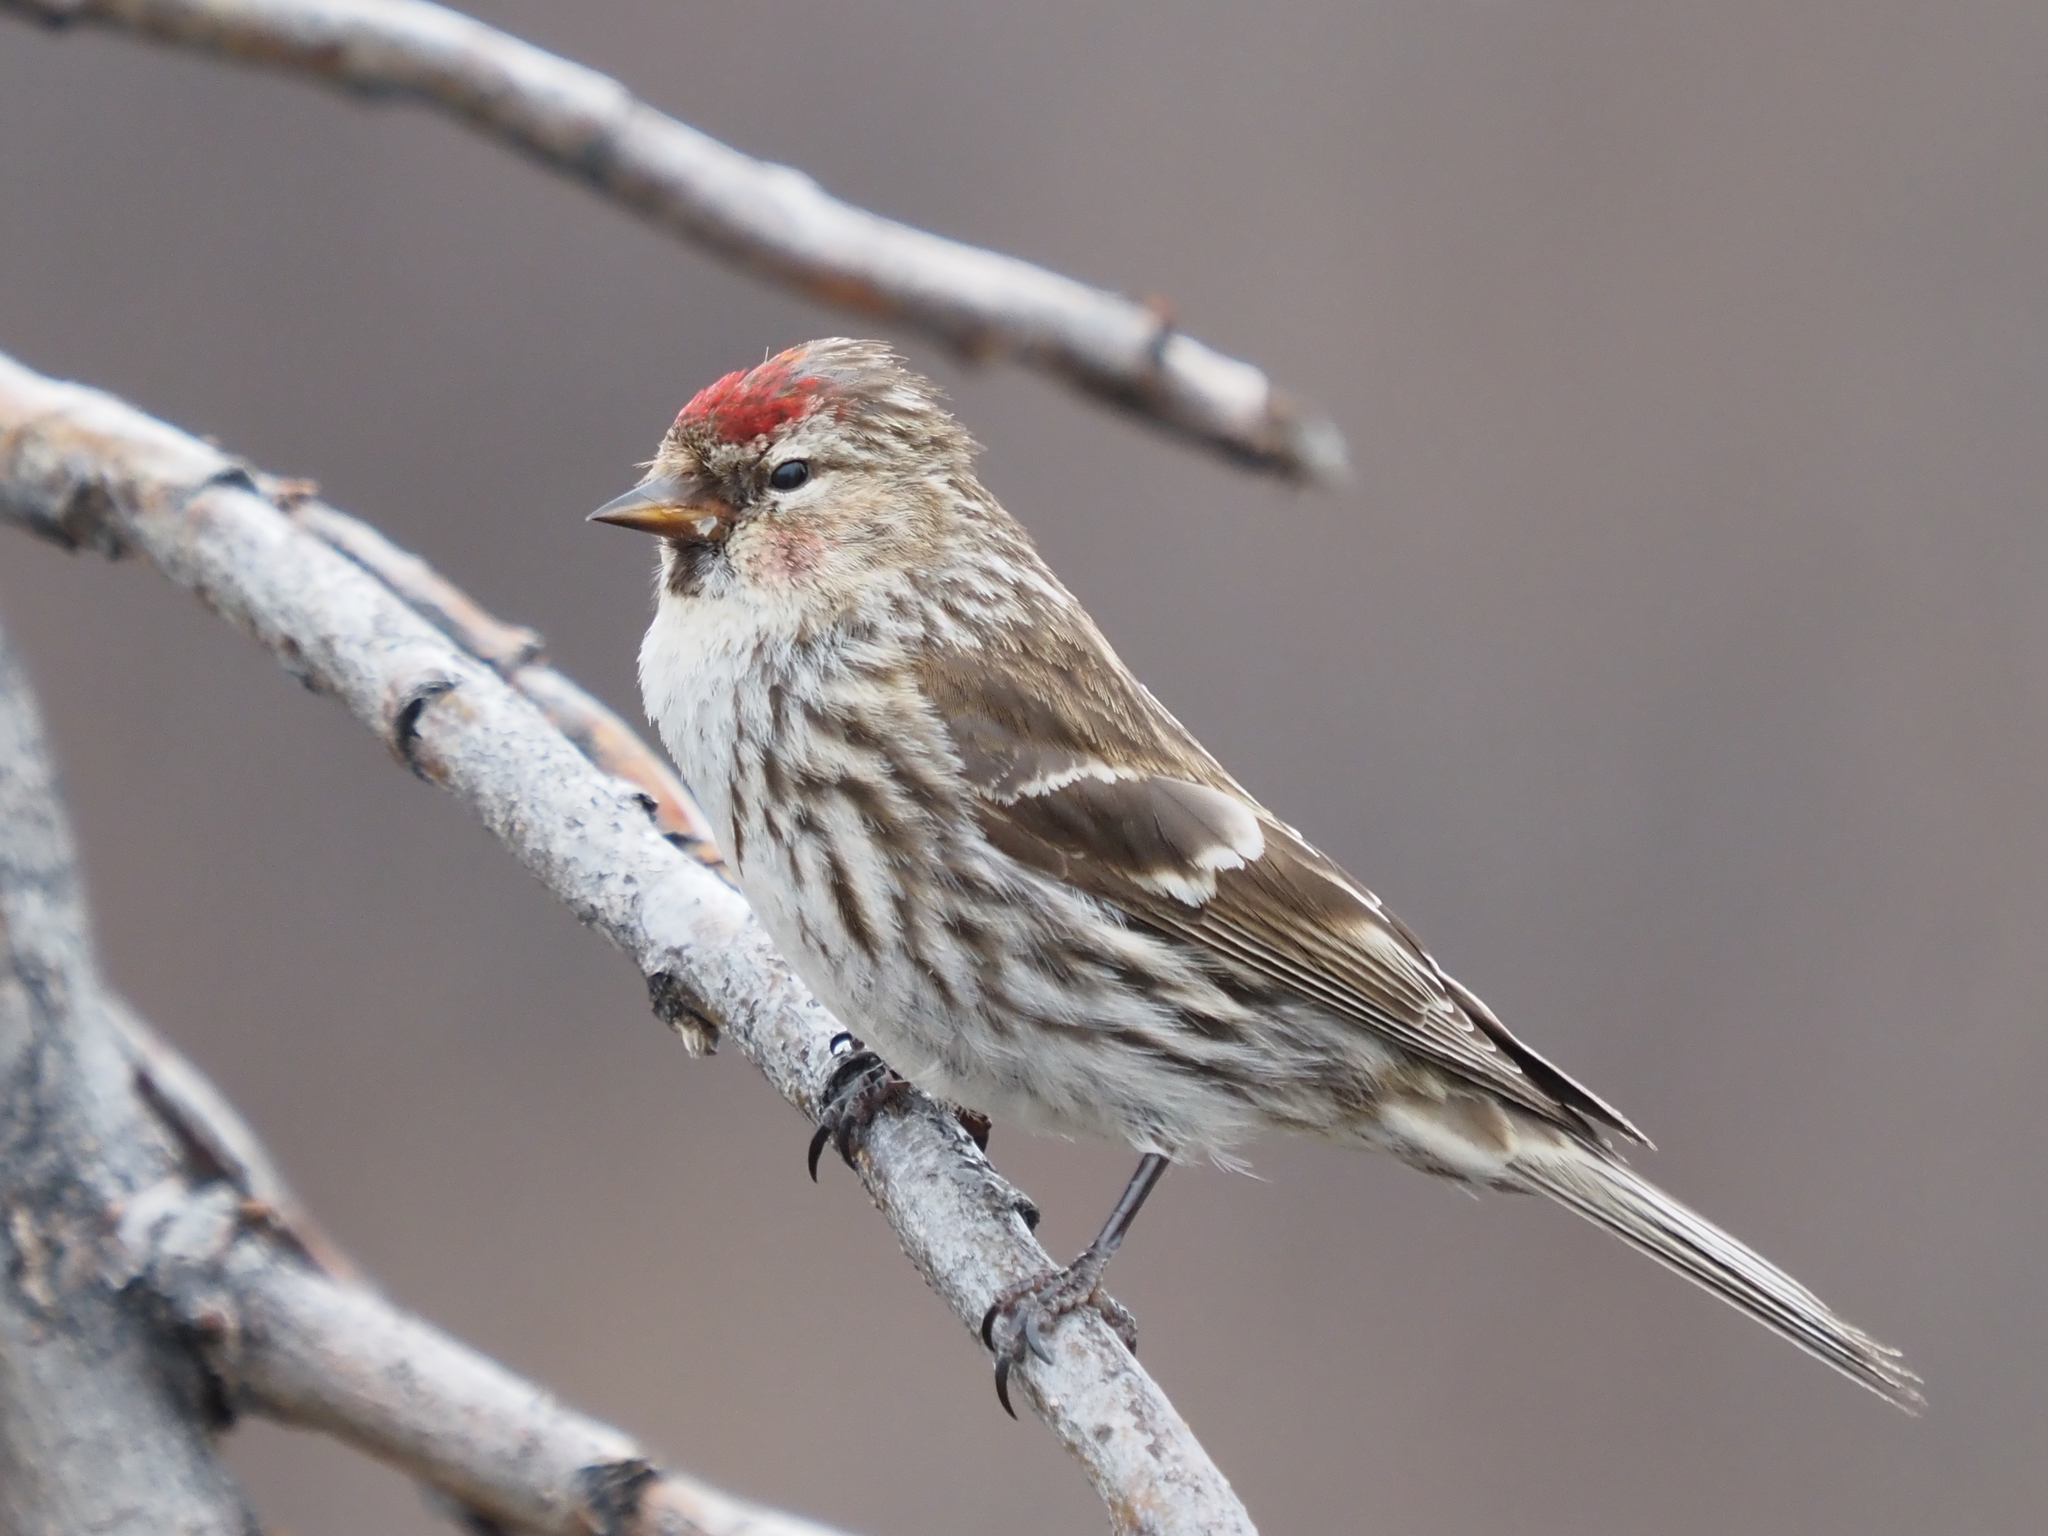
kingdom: Animalia
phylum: Chordata
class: Aves
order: Passeriformes
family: Fringillidae
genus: Acanthis
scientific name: Acanthis flammea
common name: Common redpoll
